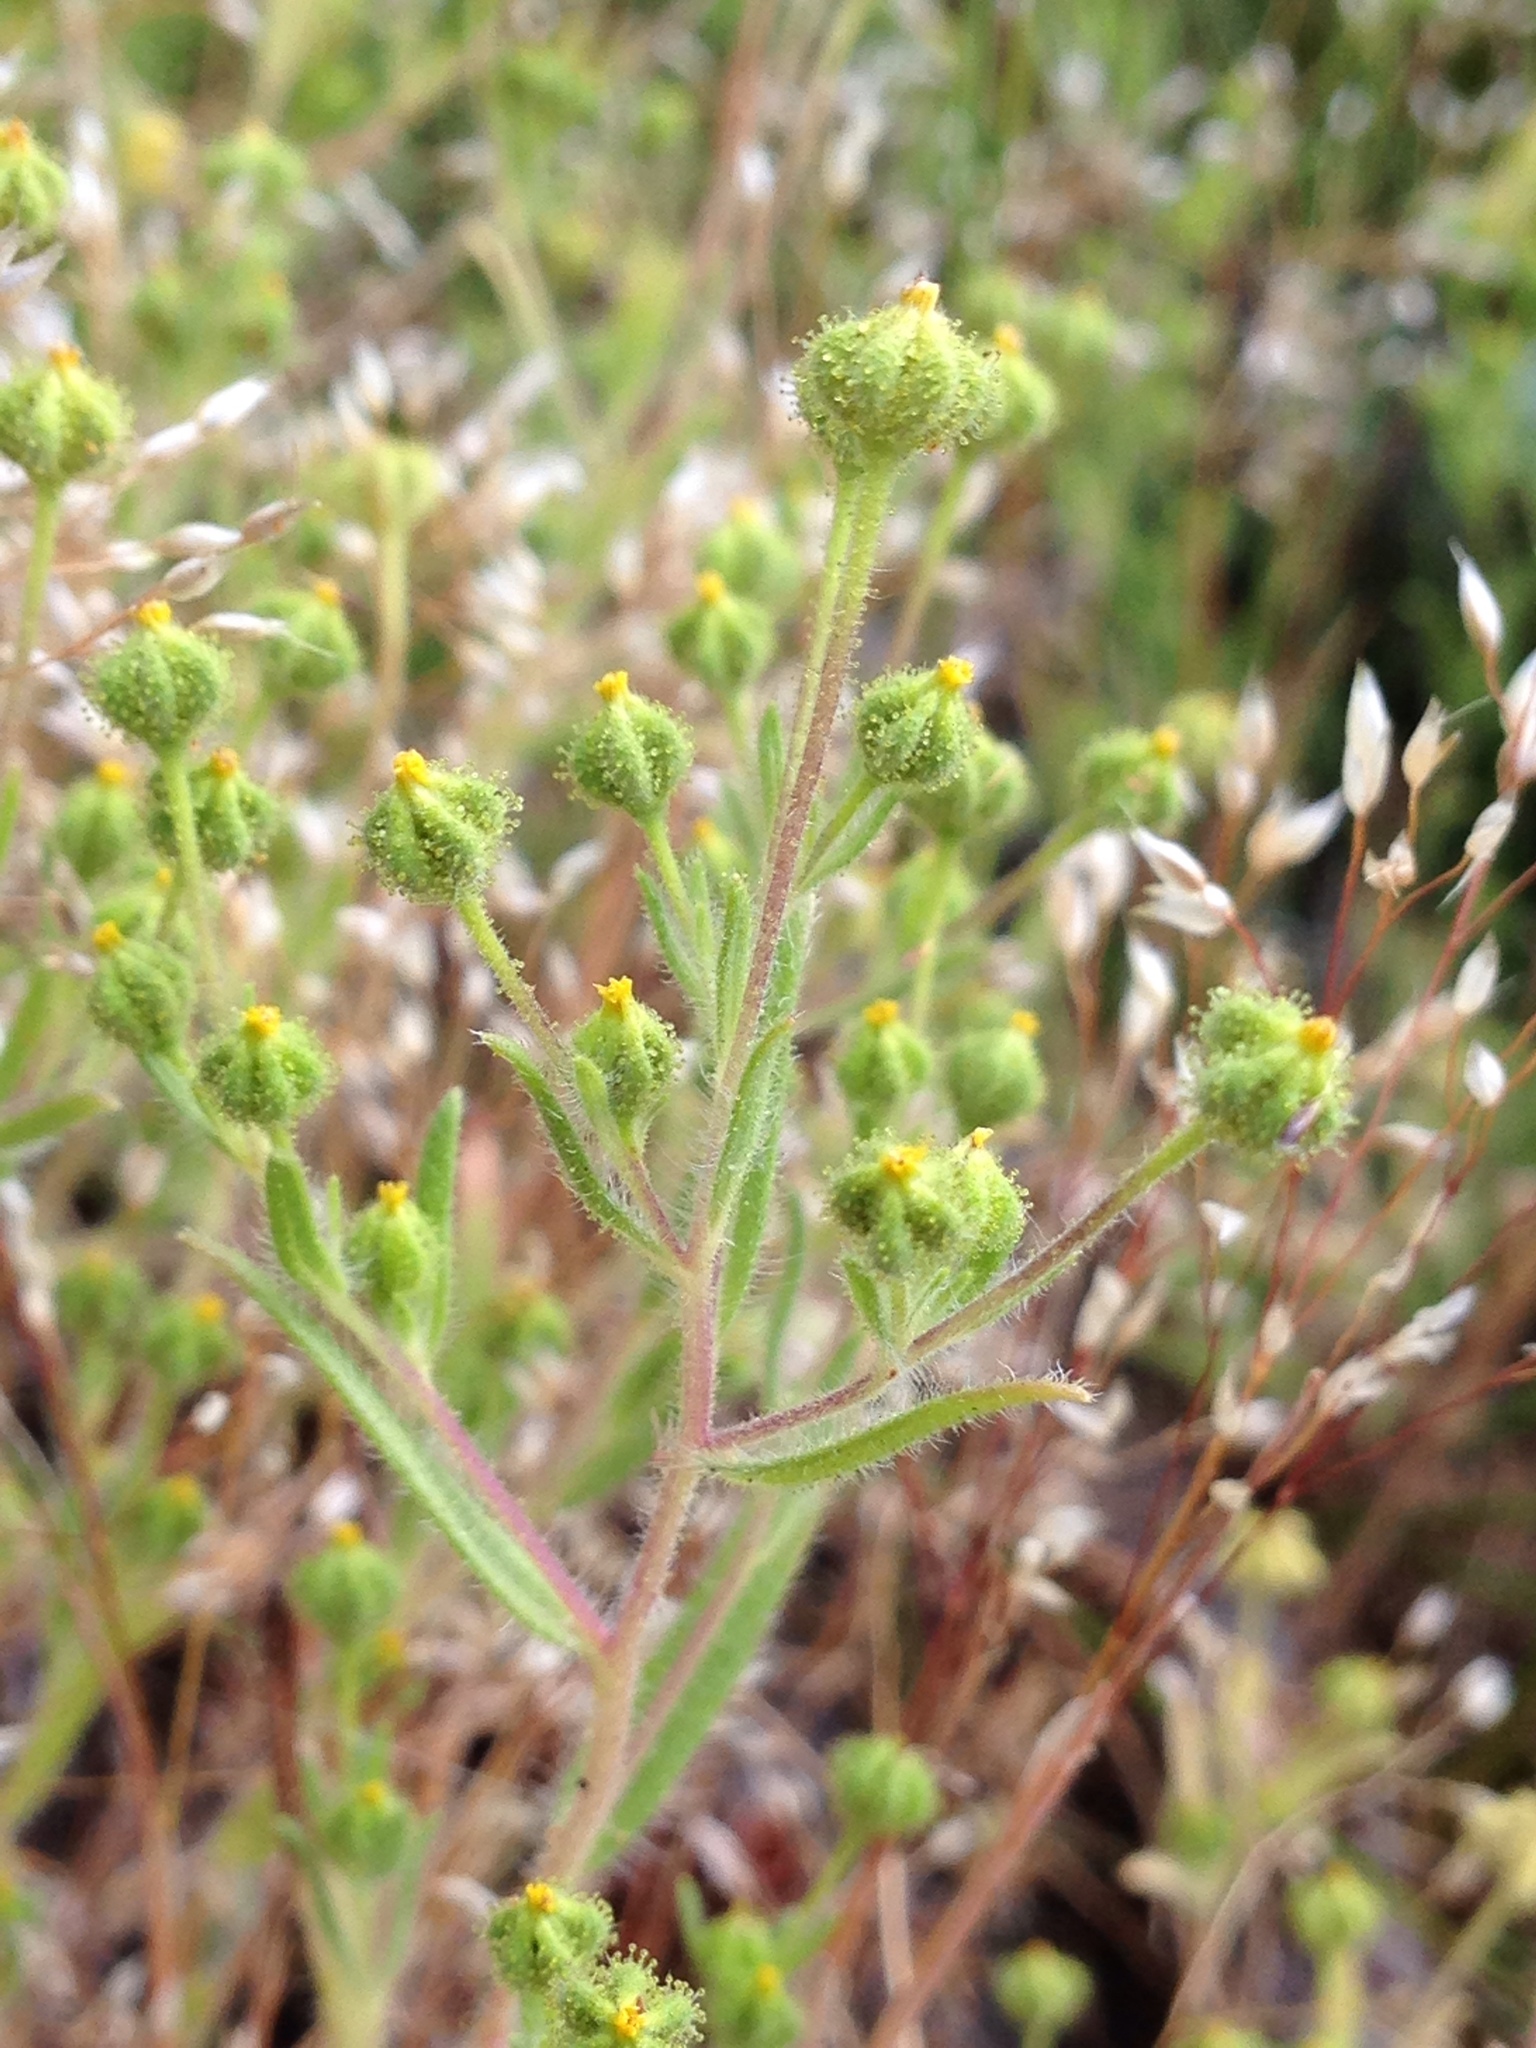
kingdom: Plantae
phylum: Tracheophyta
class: Magnoliopsida
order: Asterales
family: Asteraceae
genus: Madia
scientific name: Madia exigua
